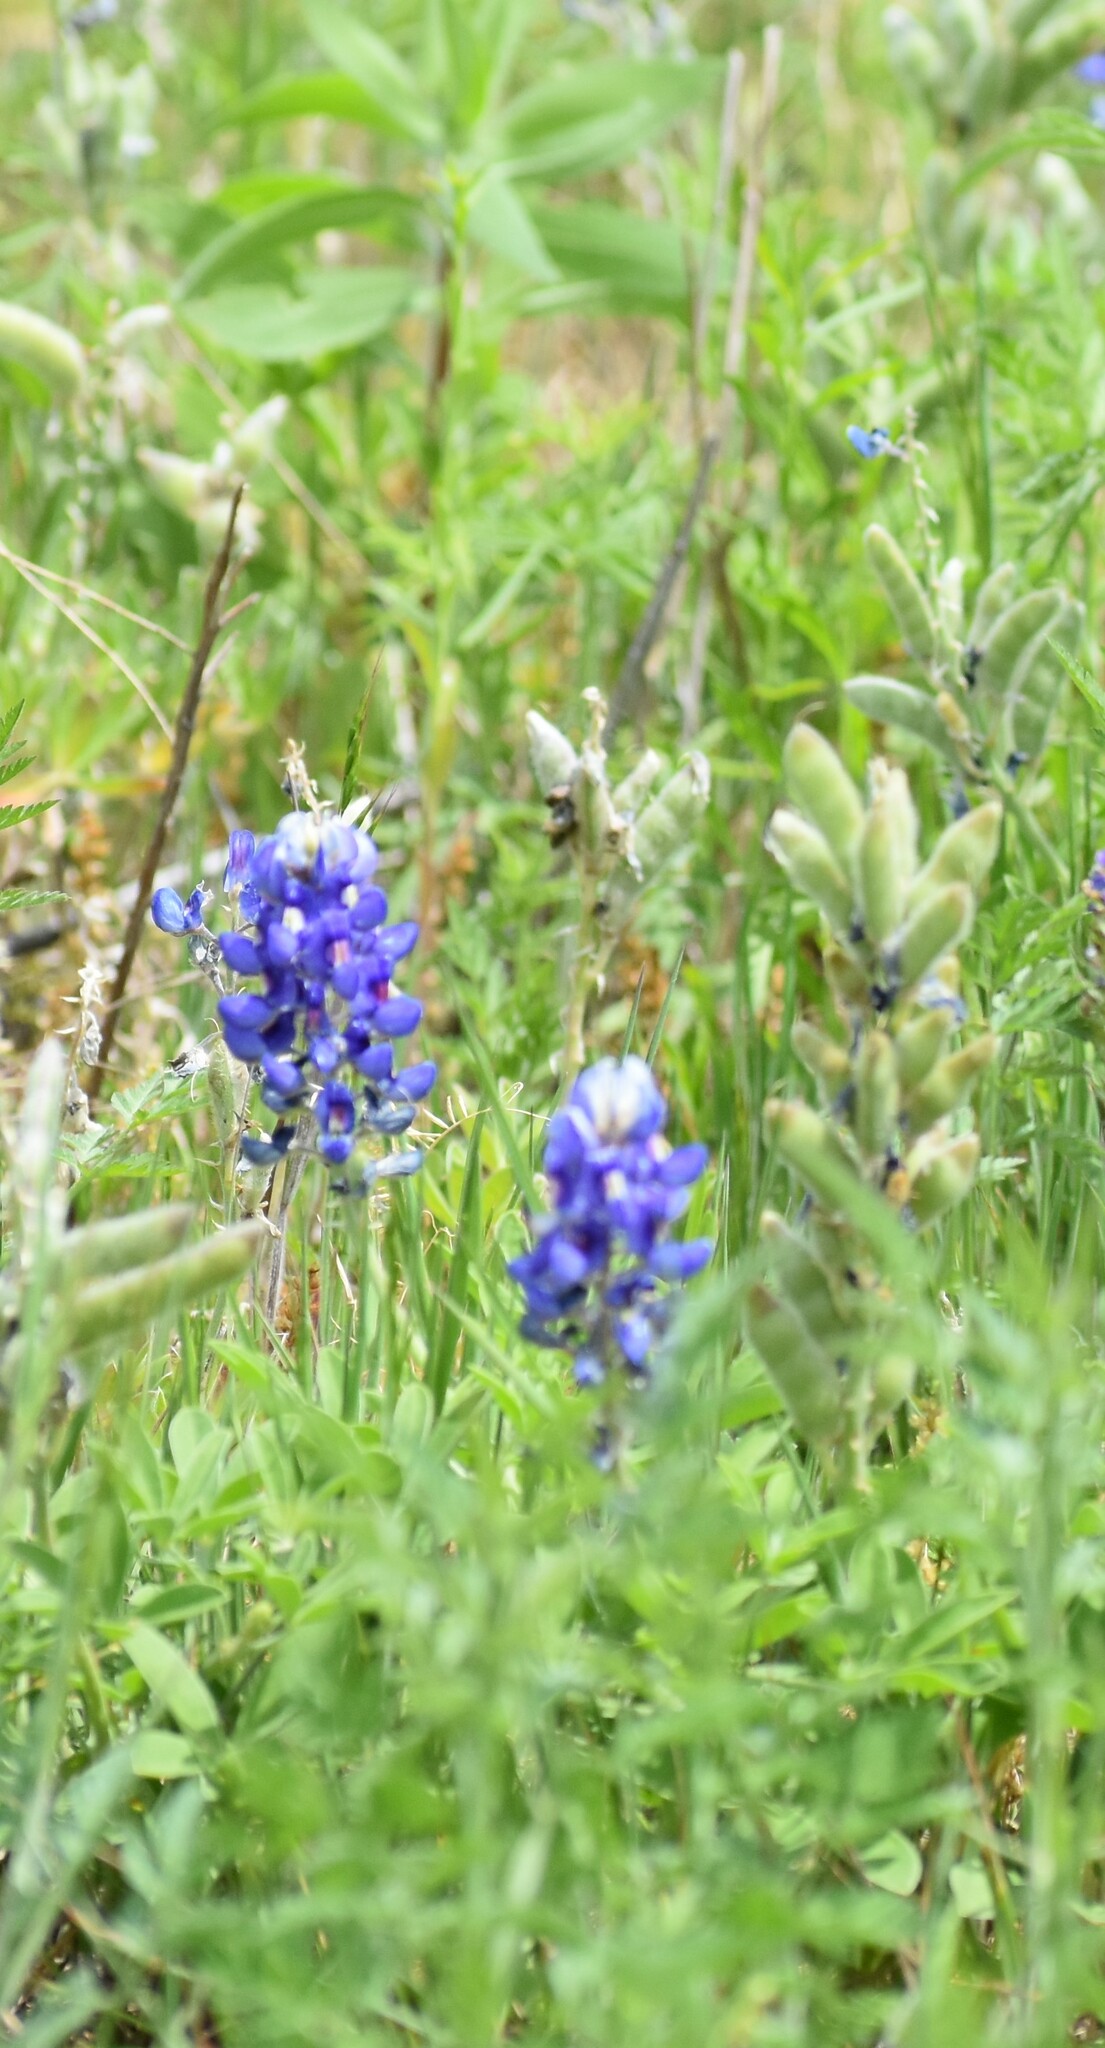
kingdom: Plantae
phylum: Tracheophyta
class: Magnoliopsida
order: Fabales
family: Fabaceae
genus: Lupinus
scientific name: Lupinus texensis
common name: Texas bluebonnet
